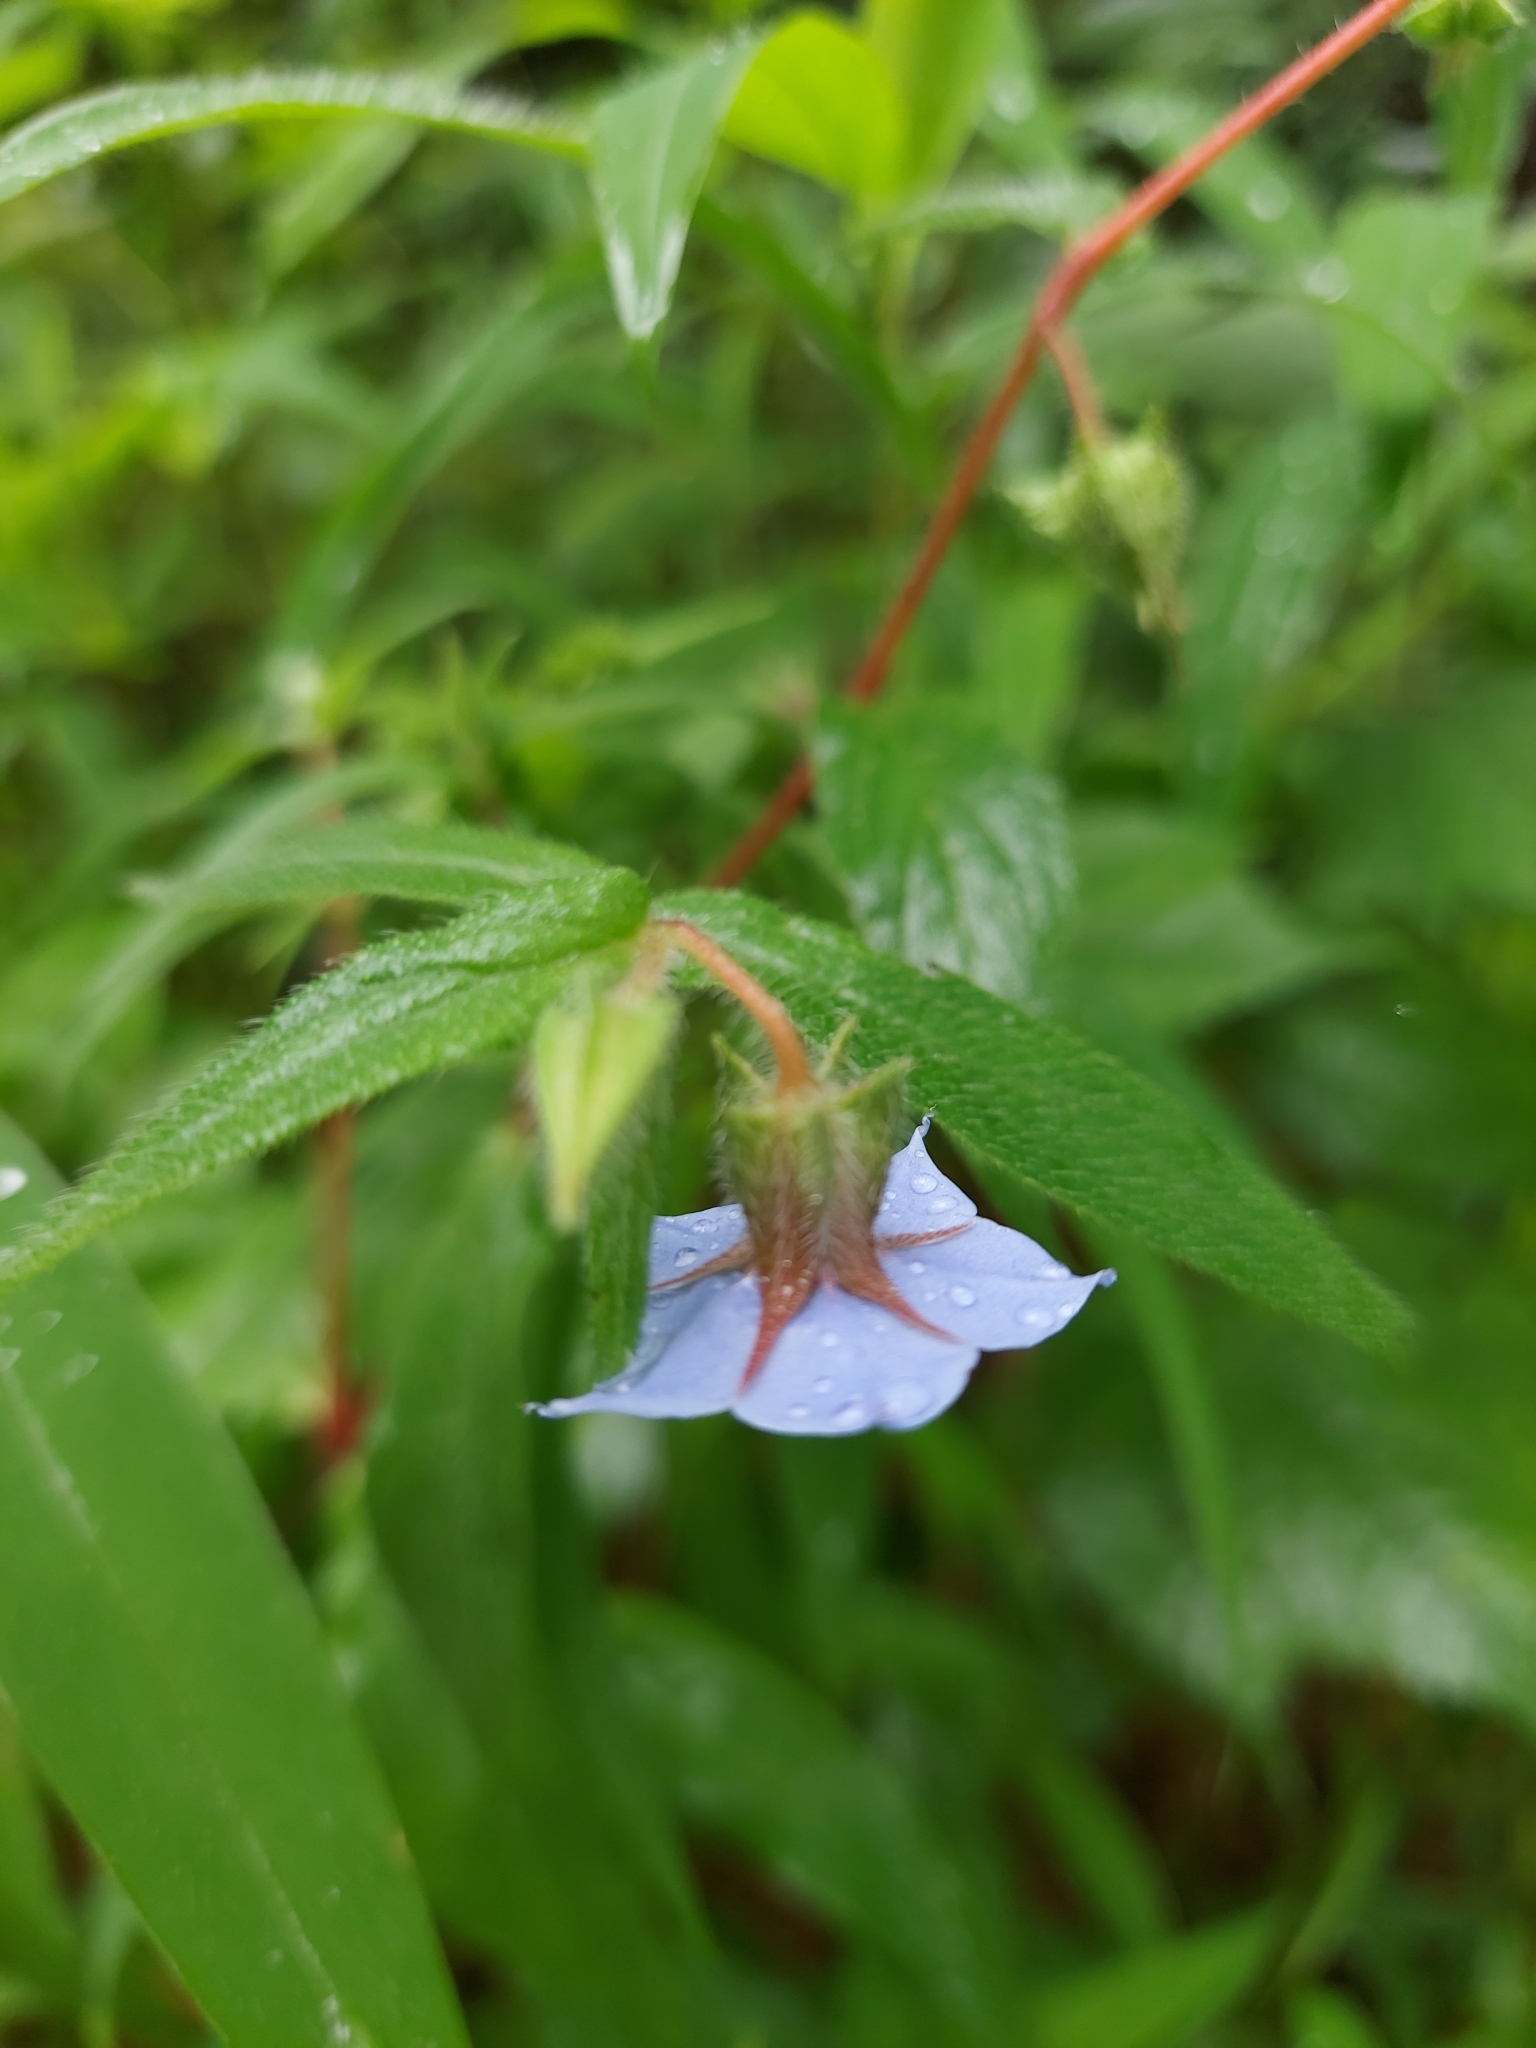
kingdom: Plantae
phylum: Tracheophyta
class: Magnoliopsida
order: Boraginales
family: Boraginaceae
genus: Trichodesma
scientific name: Trichodesma indicum
